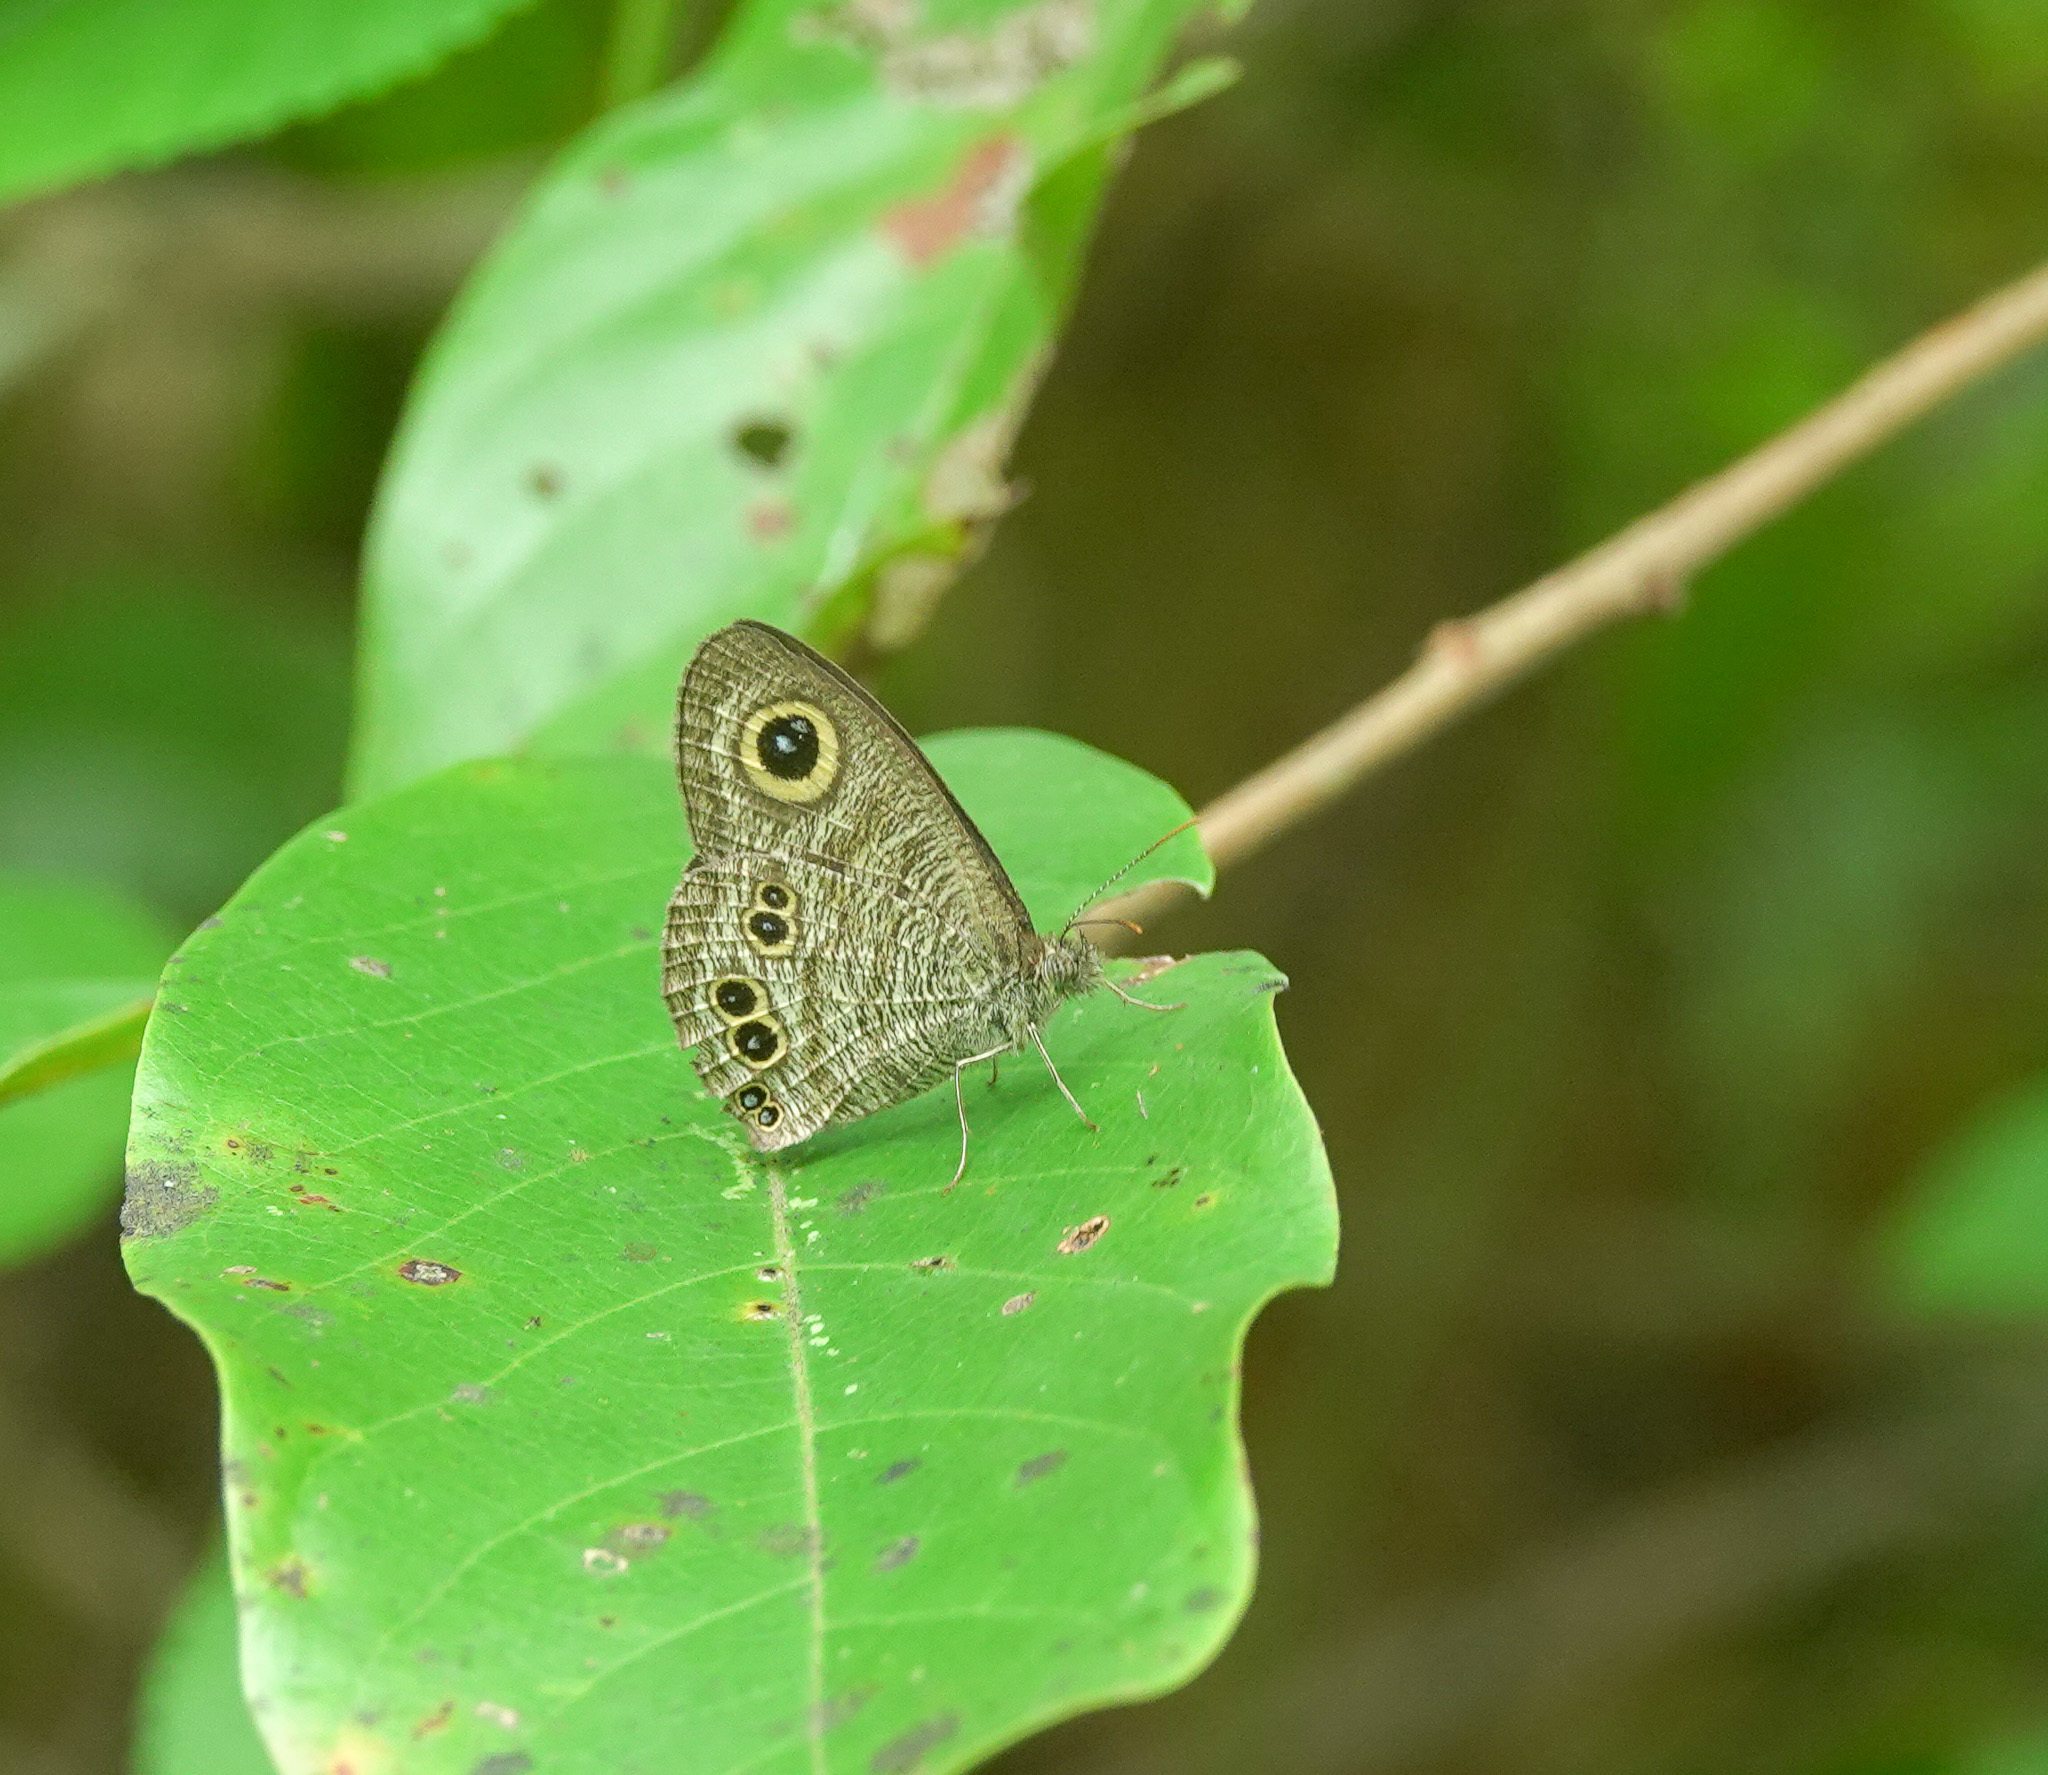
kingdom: Animalia
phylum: Arthropoda
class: Insecta
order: Lepidoptera
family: Nymphalidae
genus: Ypthima
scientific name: Ypthima baldus
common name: Common five-ring
